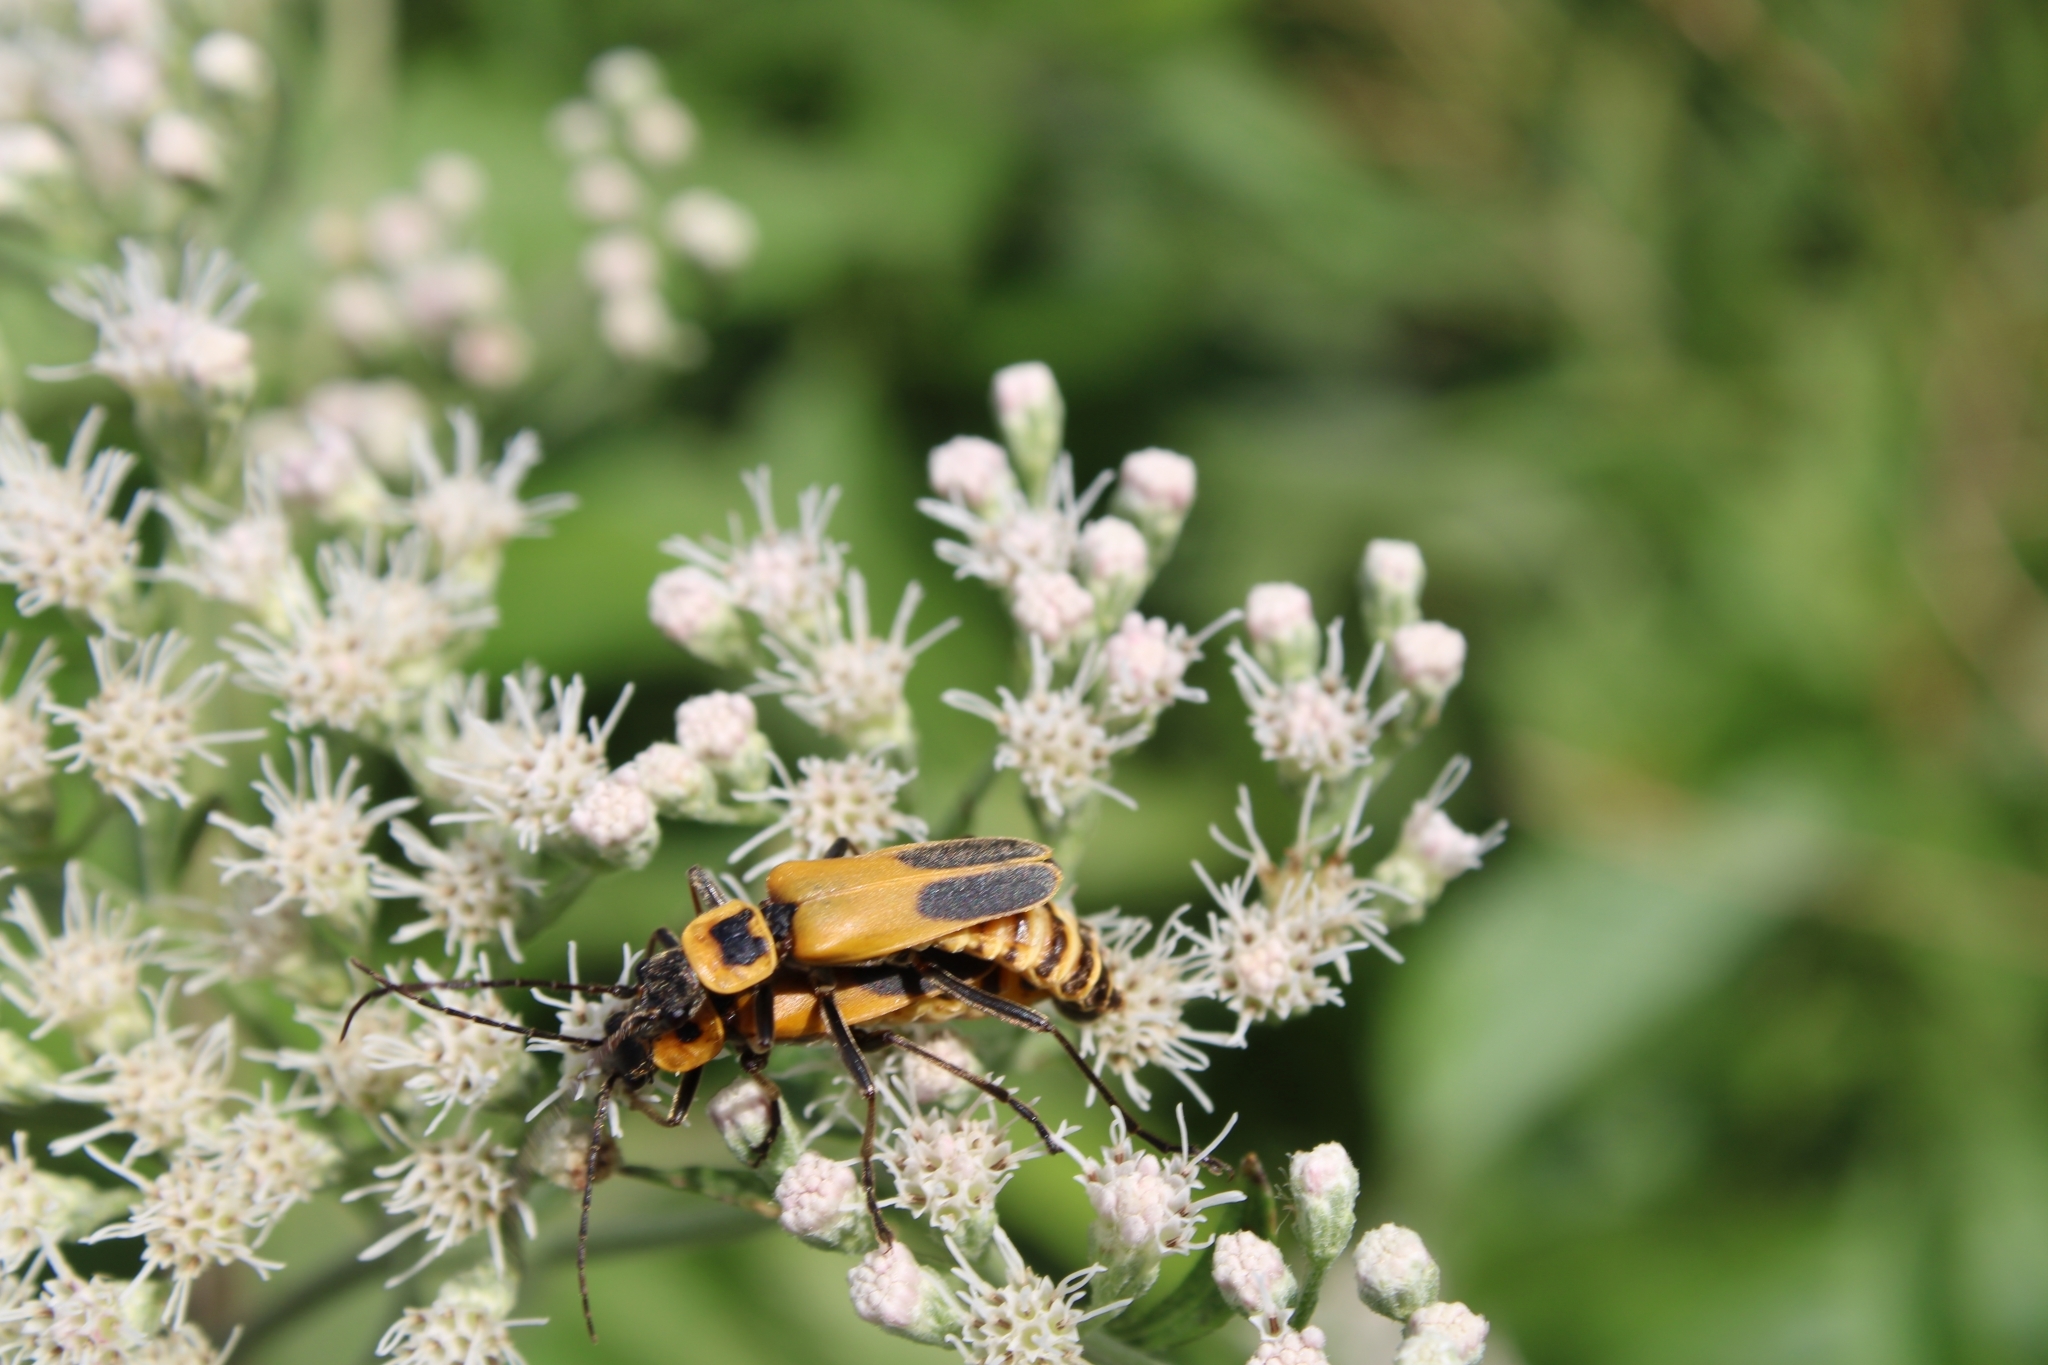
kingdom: Animalia
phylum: Arthropoda
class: Insecta
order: Coleoptera
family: Cantharidae
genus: Chauliognathus
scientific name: Chauliognathus pensylvanicus
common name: Goldenrod soldier beetle
